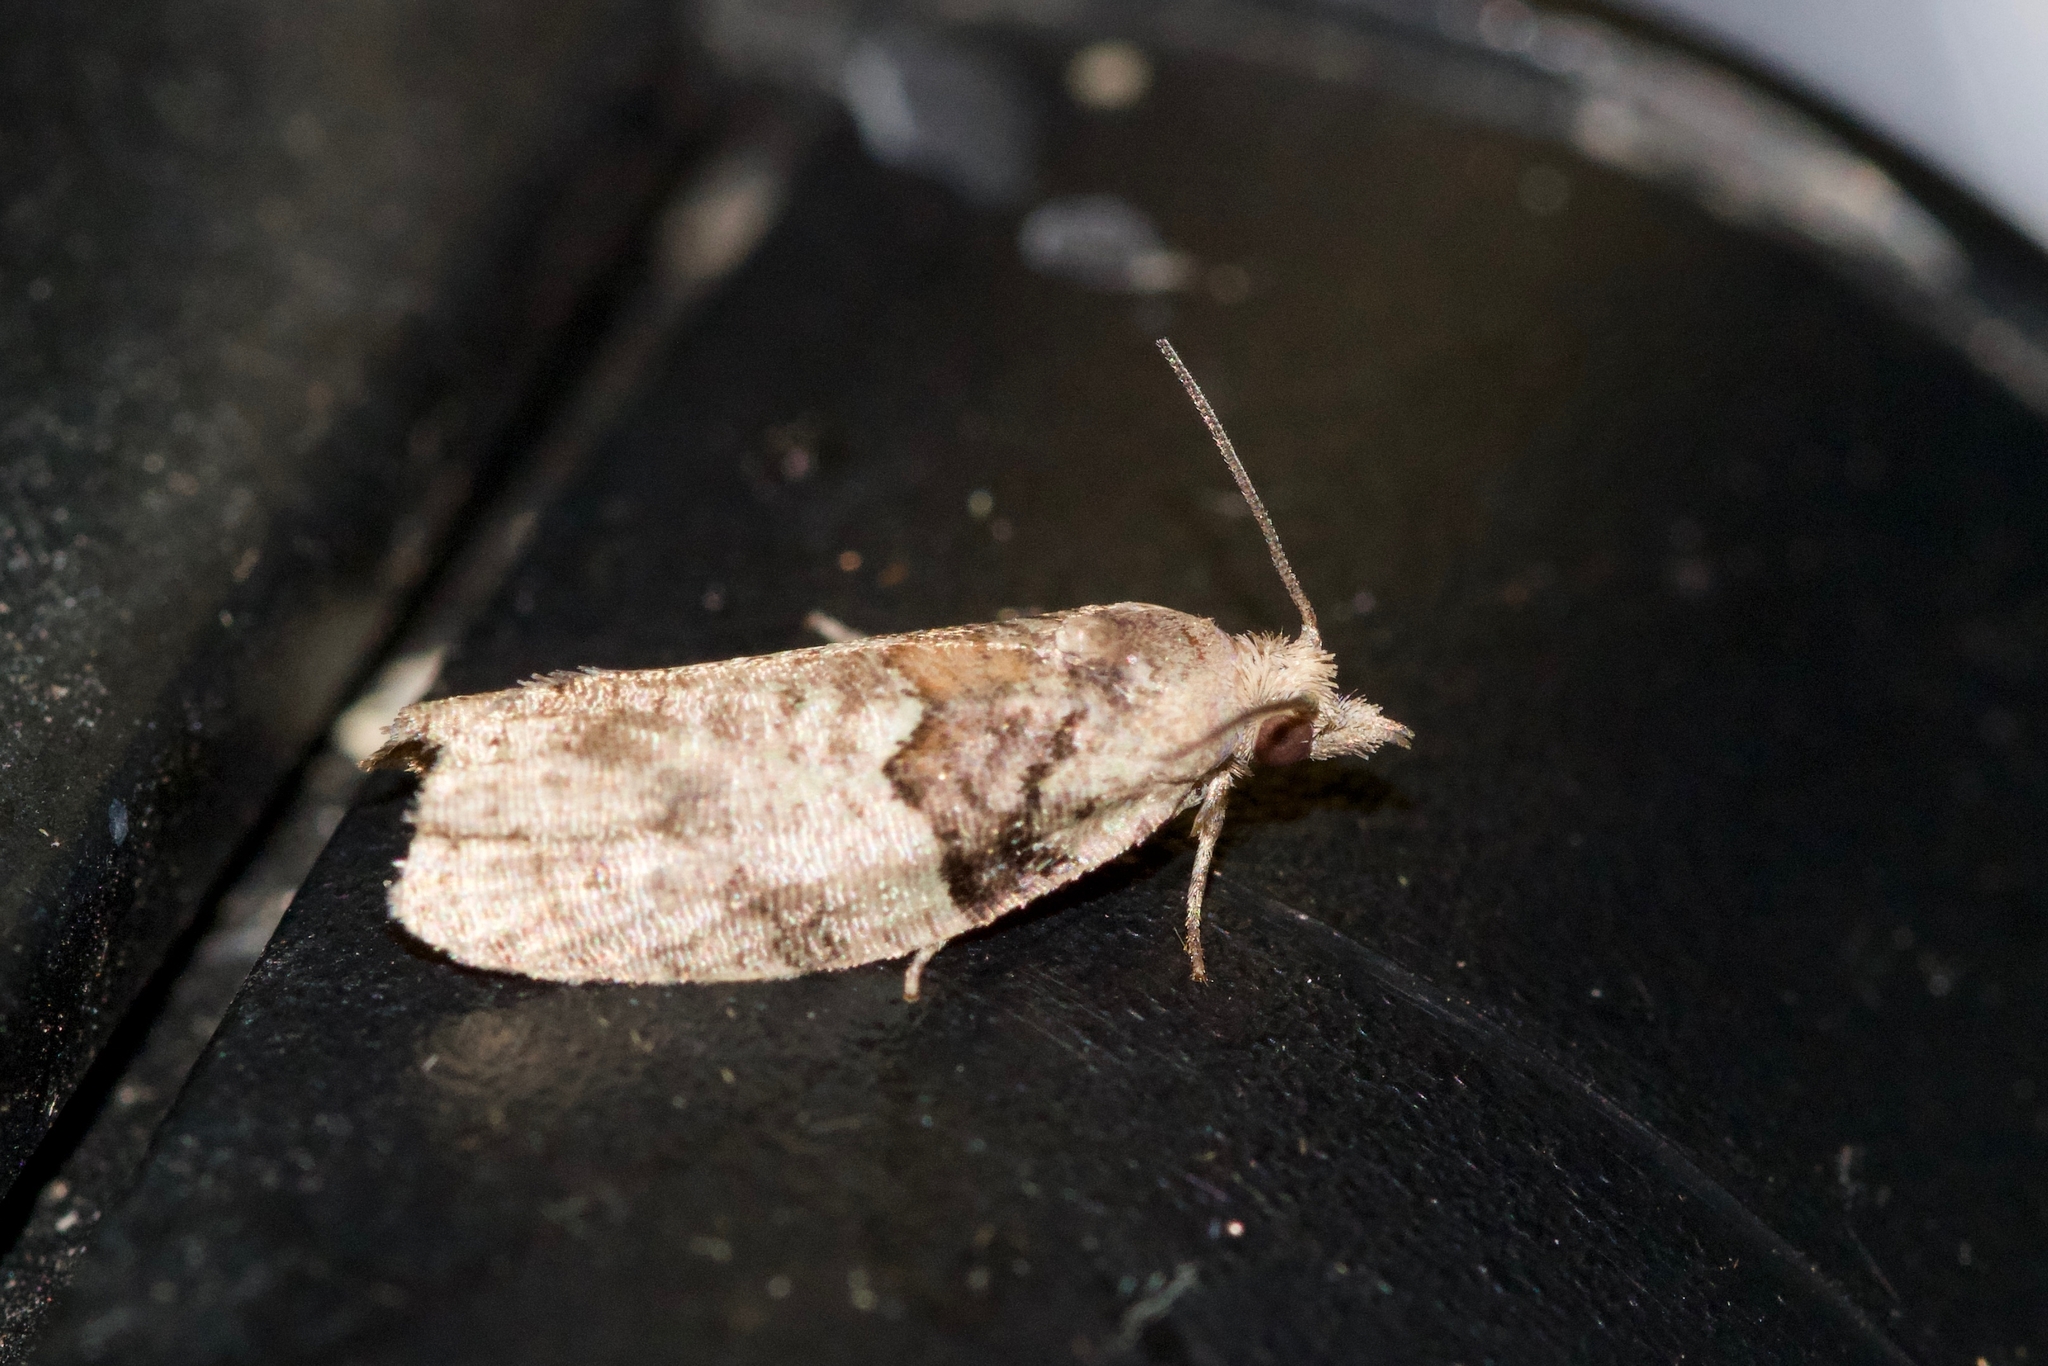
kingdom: Animalia
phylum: Arthropoda
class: Insecta
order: Lepidoptera
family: Tortricidae
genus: Epinotia
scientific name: Epinotia medioviridana
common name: Raspberry leaf-roller moth
